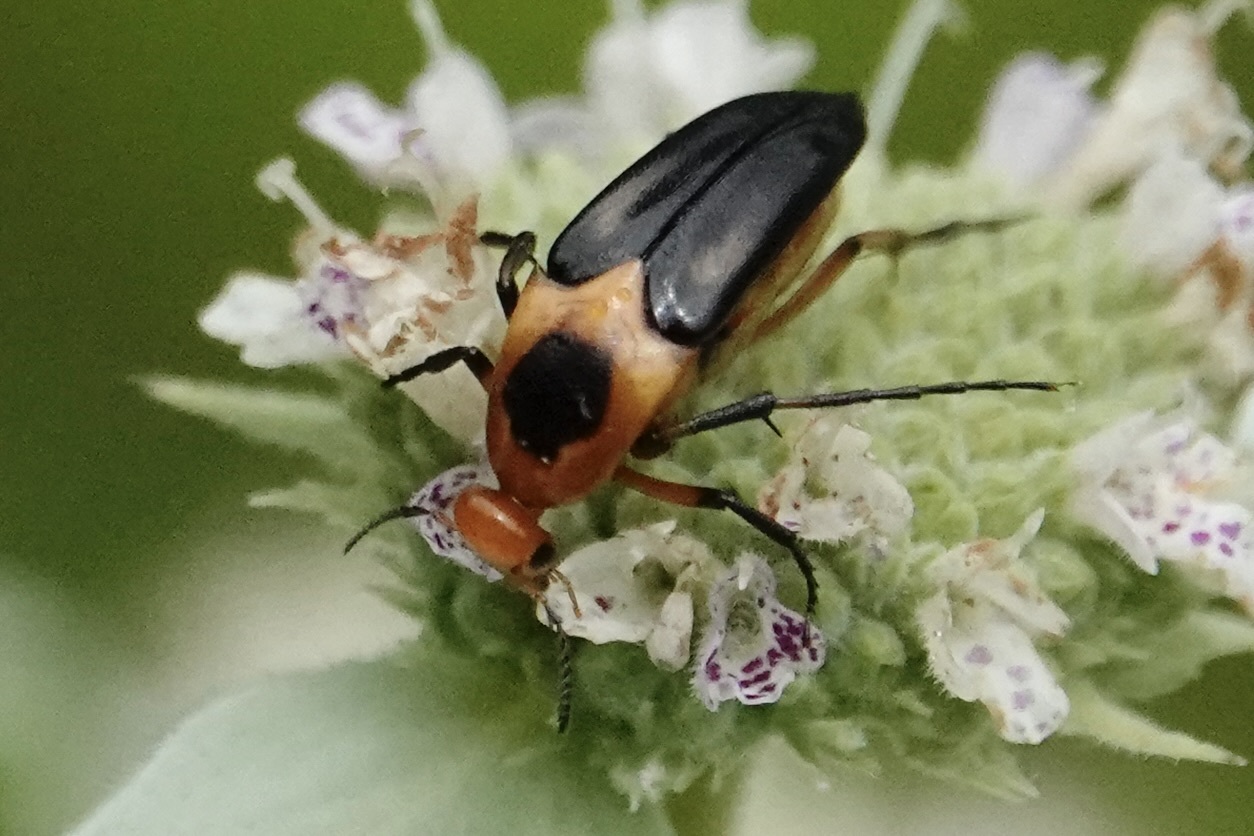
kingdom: Animalia
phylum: Arthropoda
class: Insecta
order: Coleoptera
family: Ripiphoridae
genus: Macrosiagon
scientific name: Macrosiagon limbatum
